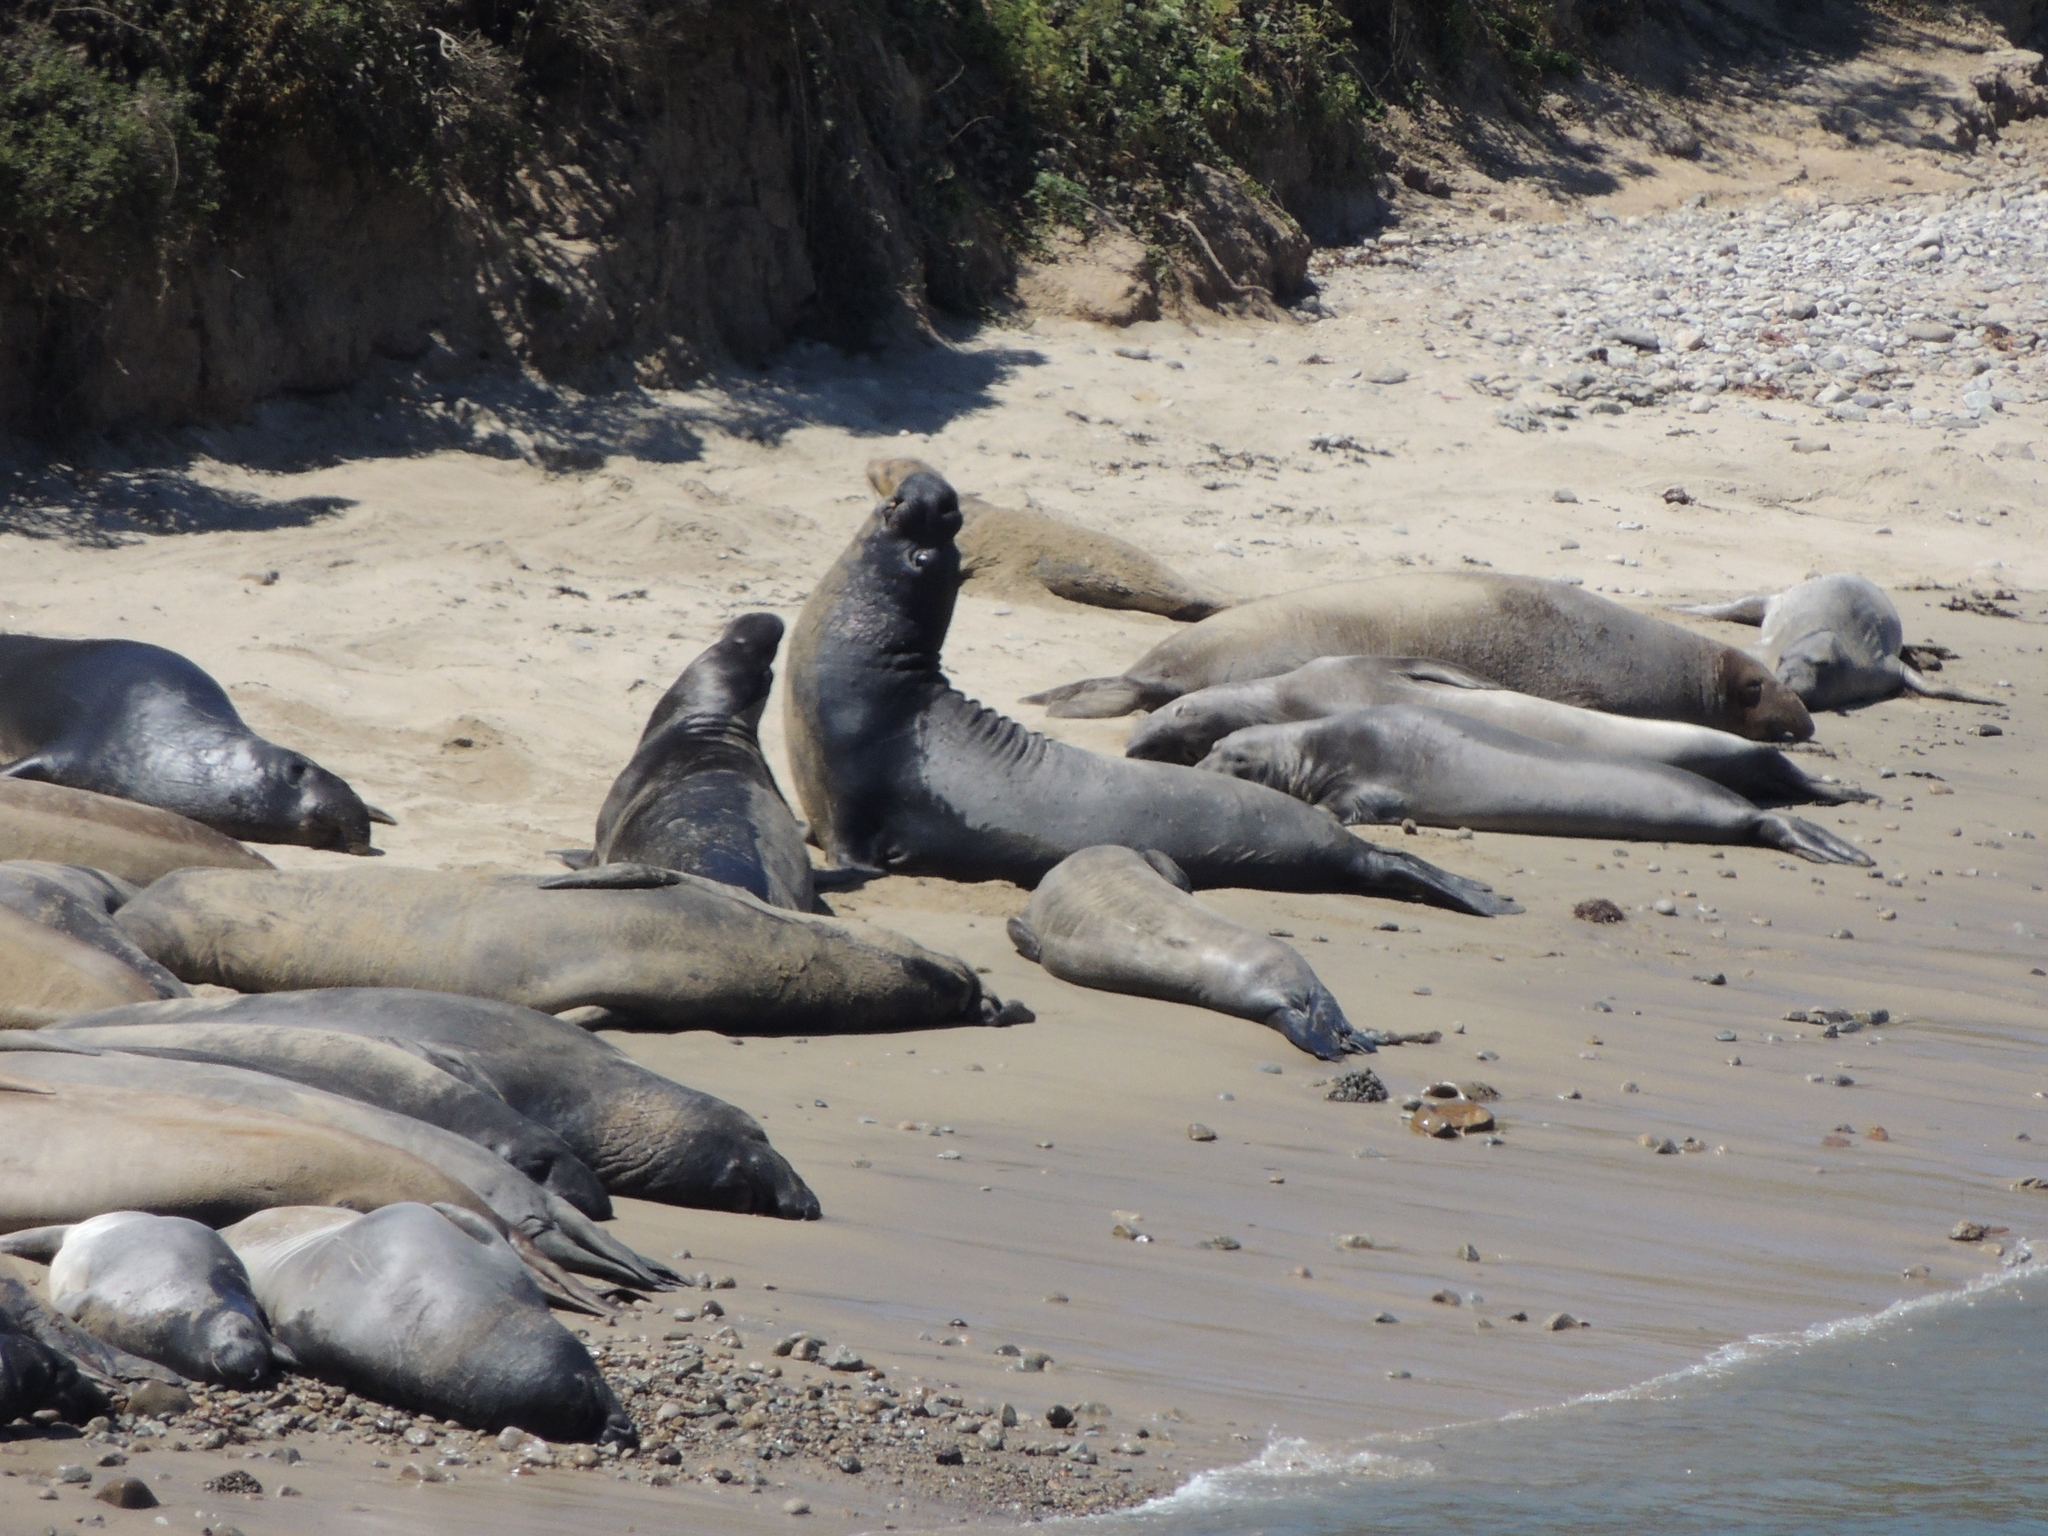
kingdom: Animalia
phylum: Chordata
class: Mammalia
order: Carnivora
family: Phocidae
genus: Mirounga
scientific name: Mirounga angustirostris
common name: Northern elephant seal
